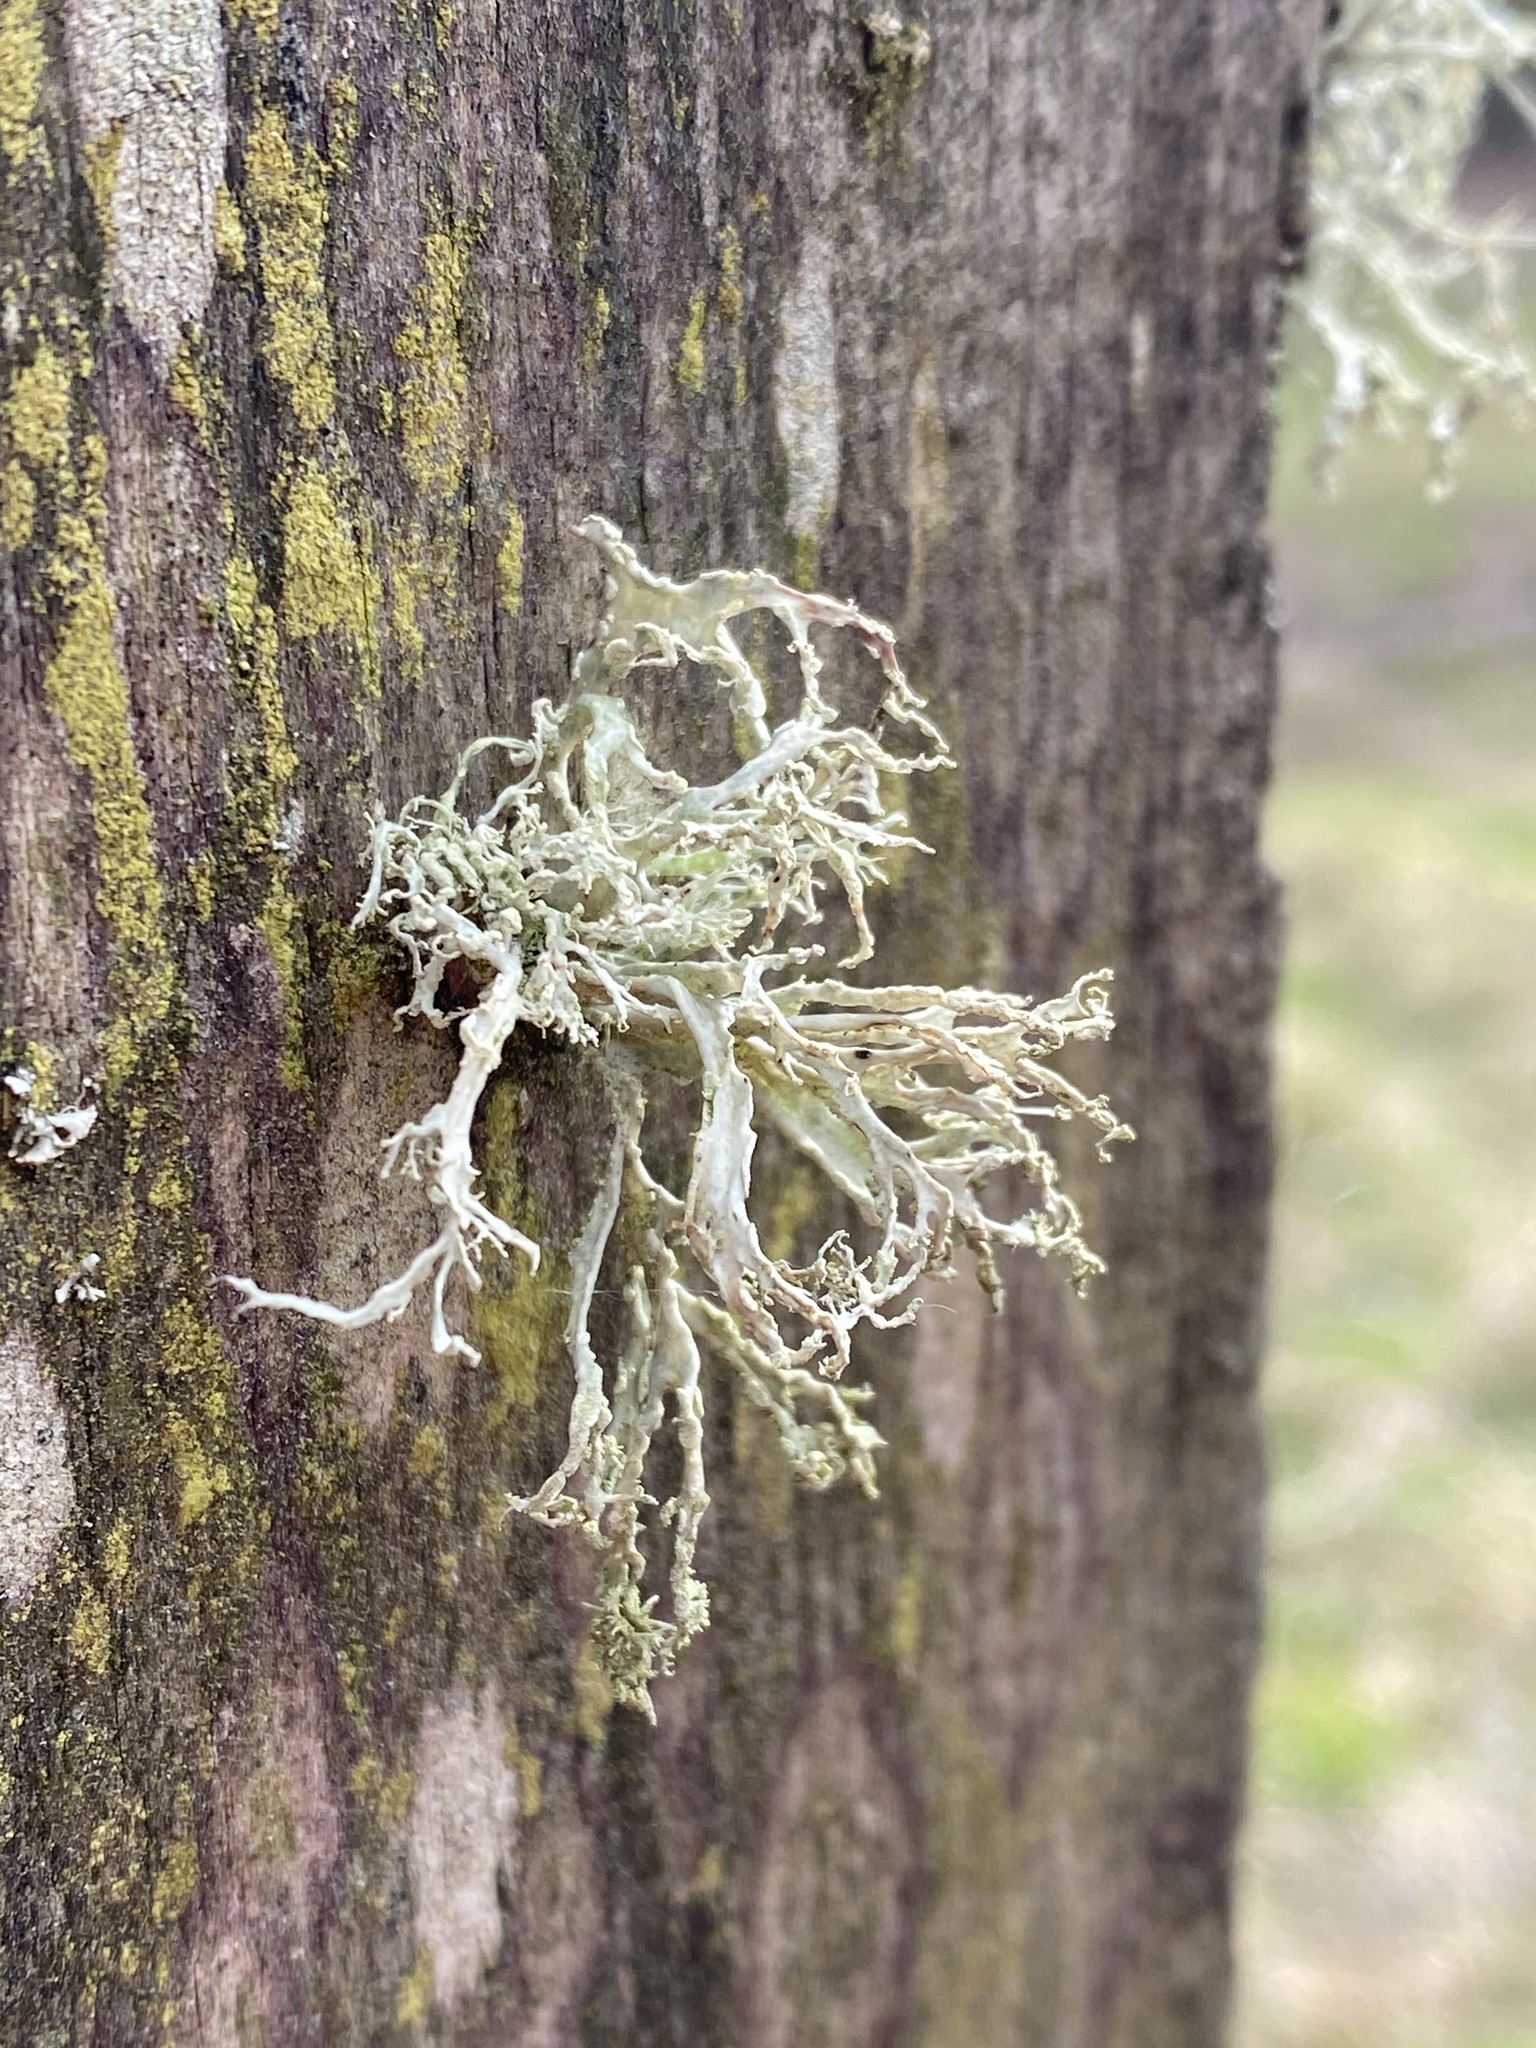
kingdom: Fungi
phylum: Ascomycota
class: Lecanoromycetes
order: Lecanorales
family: Ramalinaceae
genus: Ramalina
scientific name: Ramalina farinacea
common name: Farinose cartilage lichen
